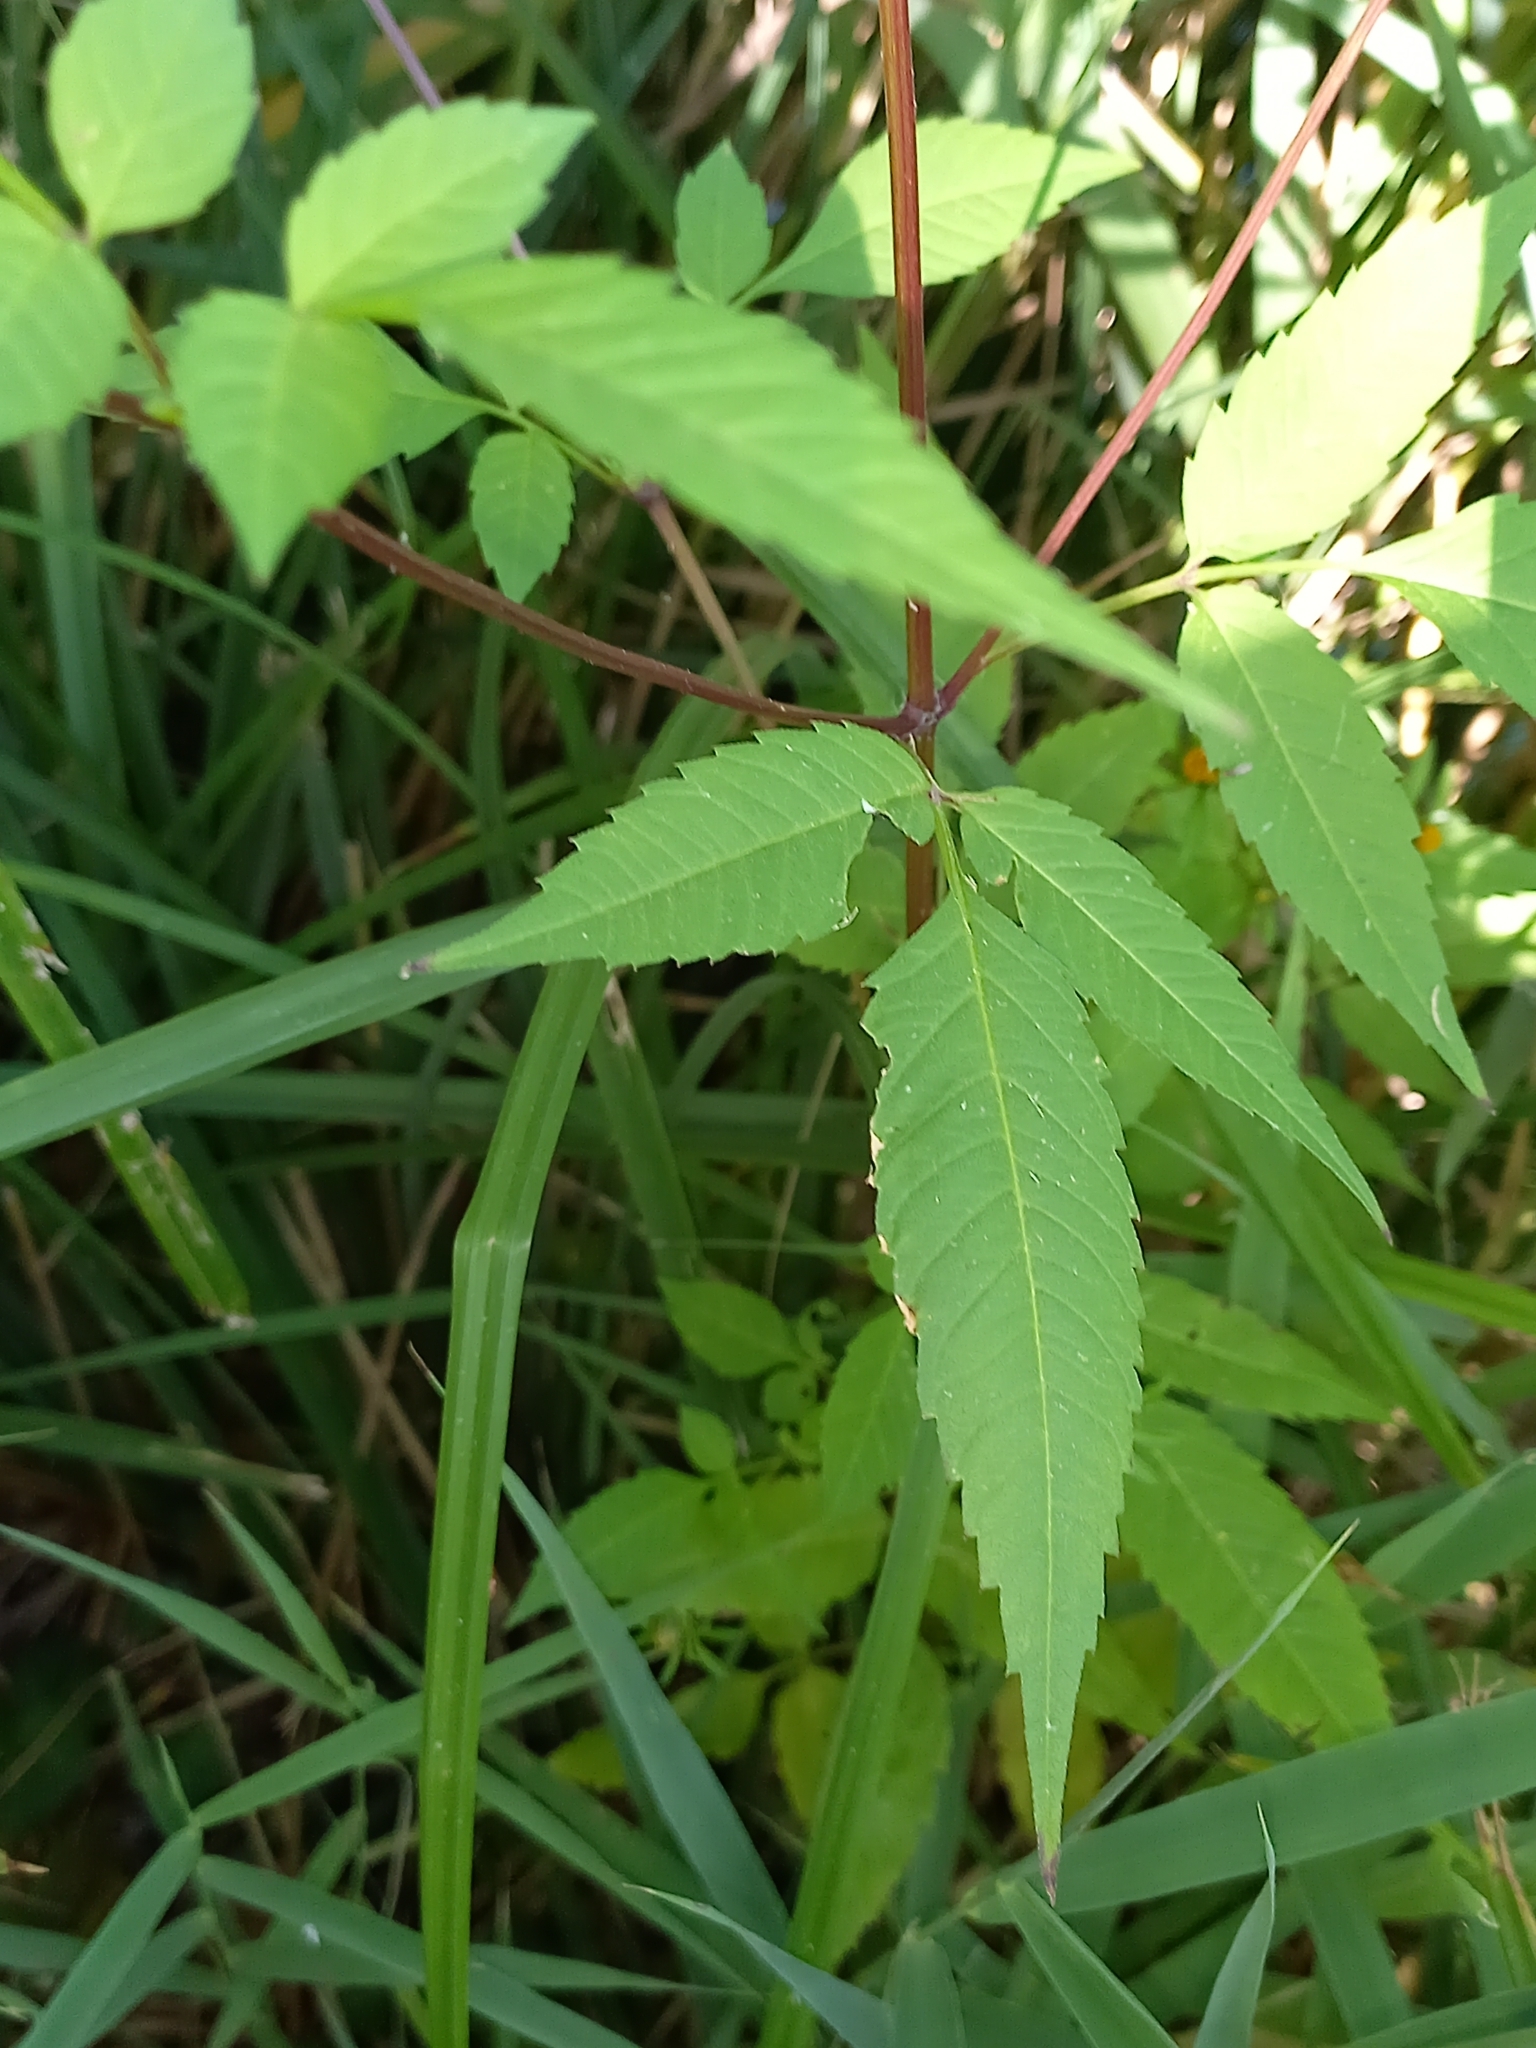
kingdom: Plantae
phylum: Tracheophyta
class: Magnoliopsida
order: Asterales
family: Asteraceae
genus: Bidens
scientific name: Bidens frondosa
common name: Beggarticks
